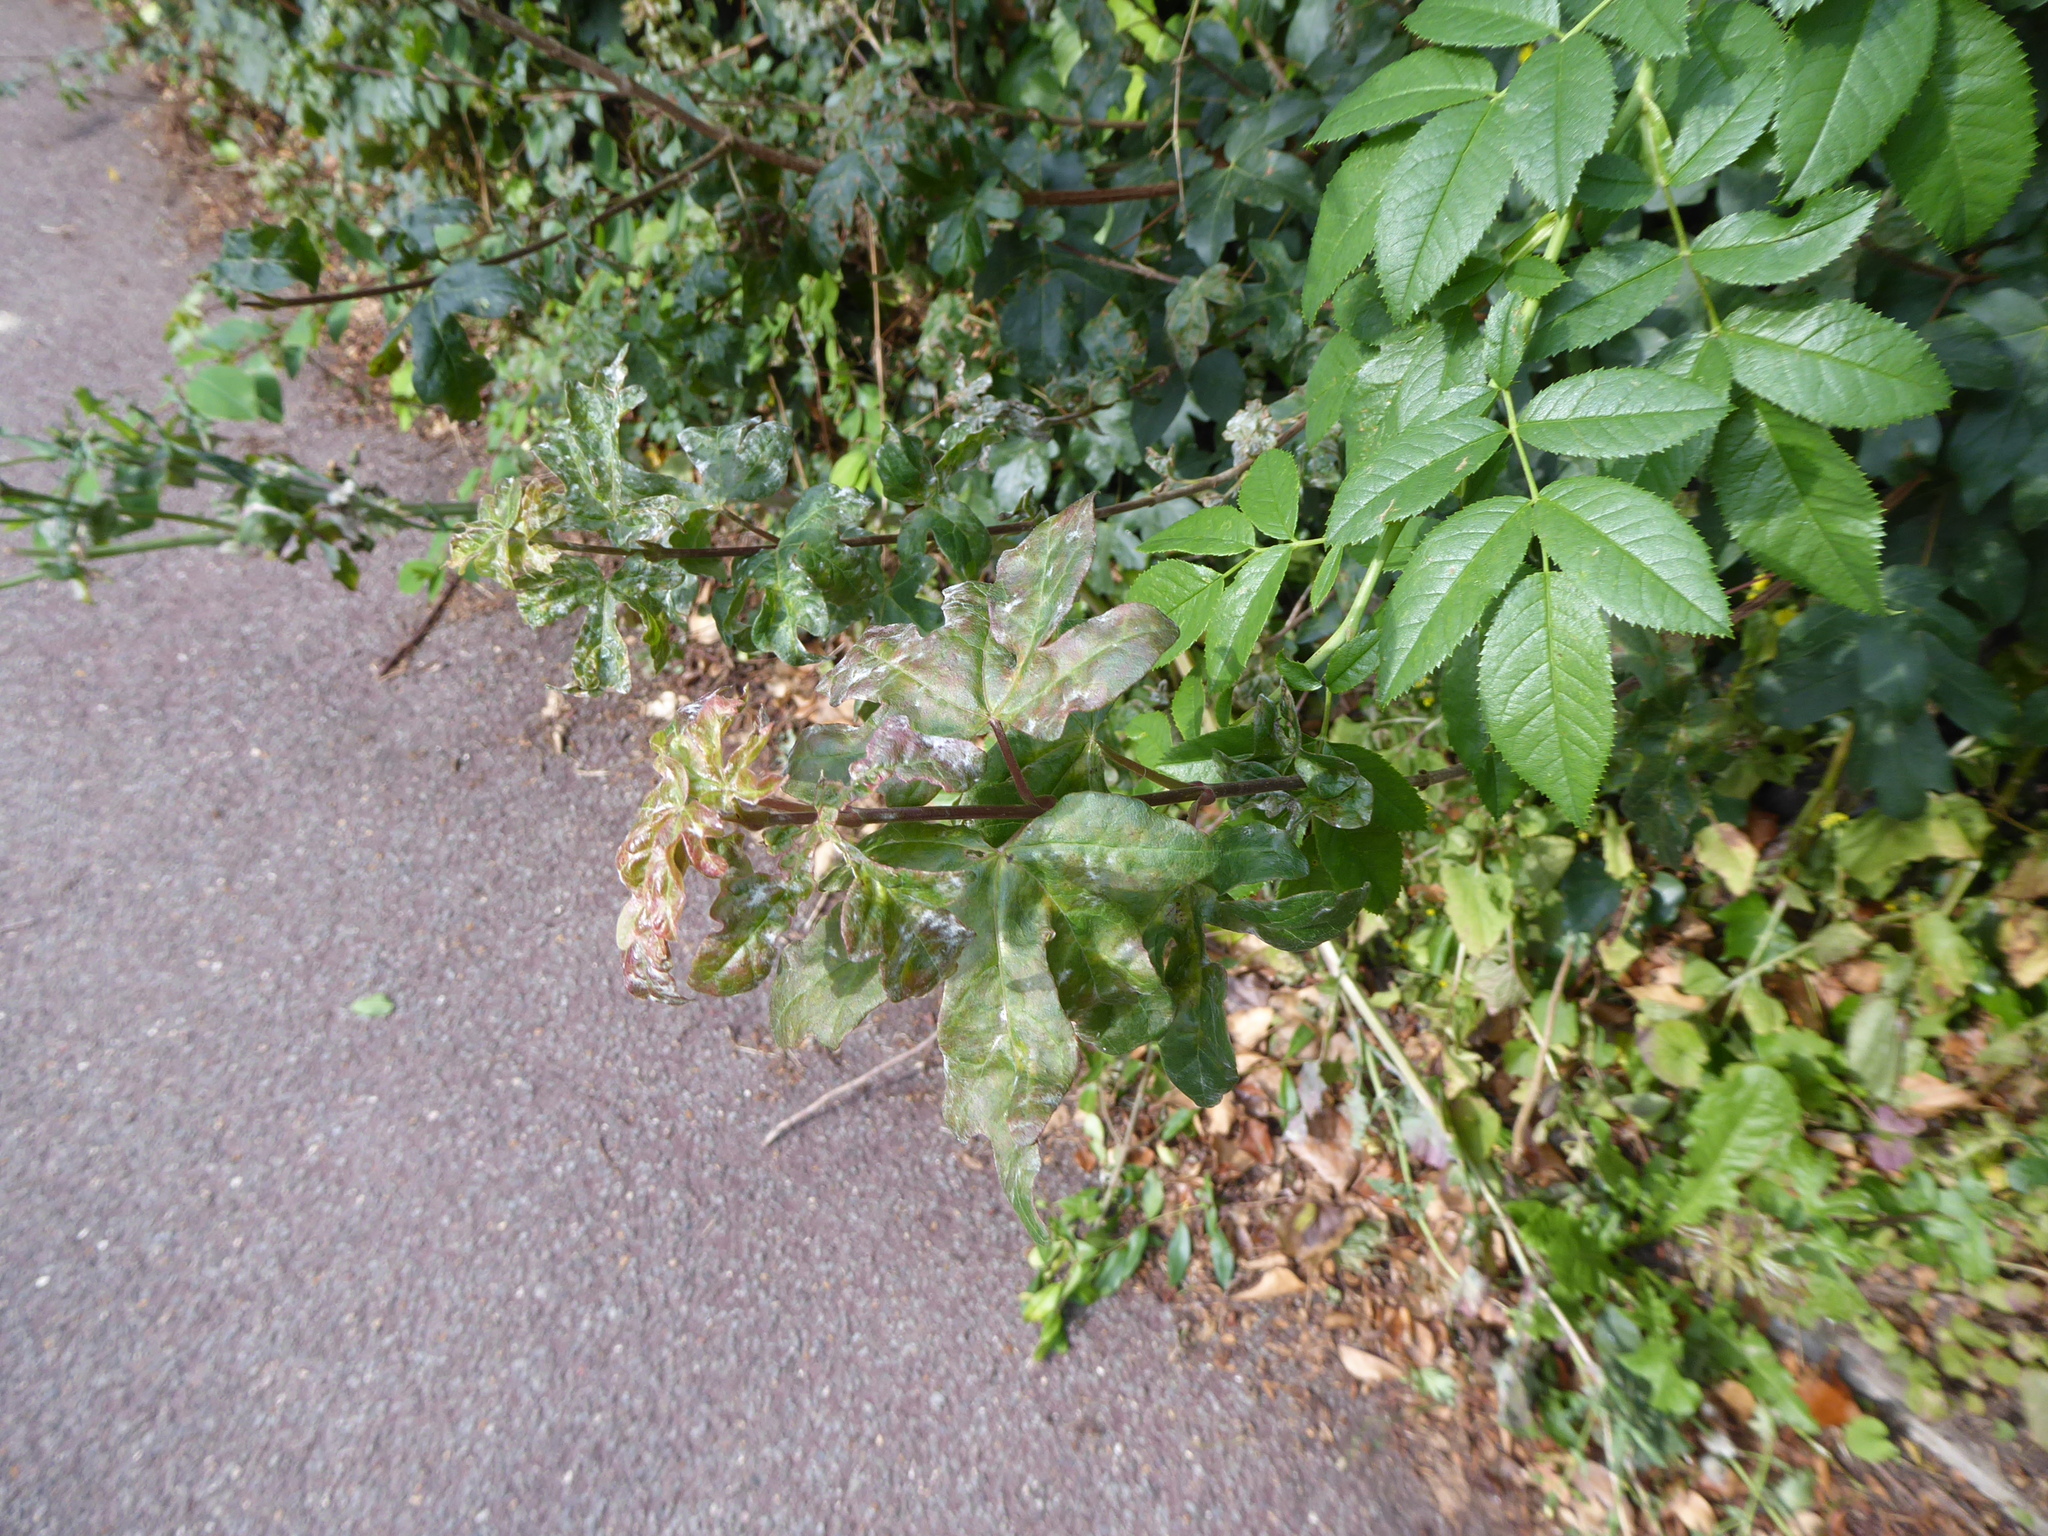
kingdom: Fungi
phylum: Ascomycota
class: Leotiomycetes
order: Helotiales
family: Erysiphaceae
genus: Sawadaea
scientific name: Sawadaea bicornis
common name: Maple mildew
